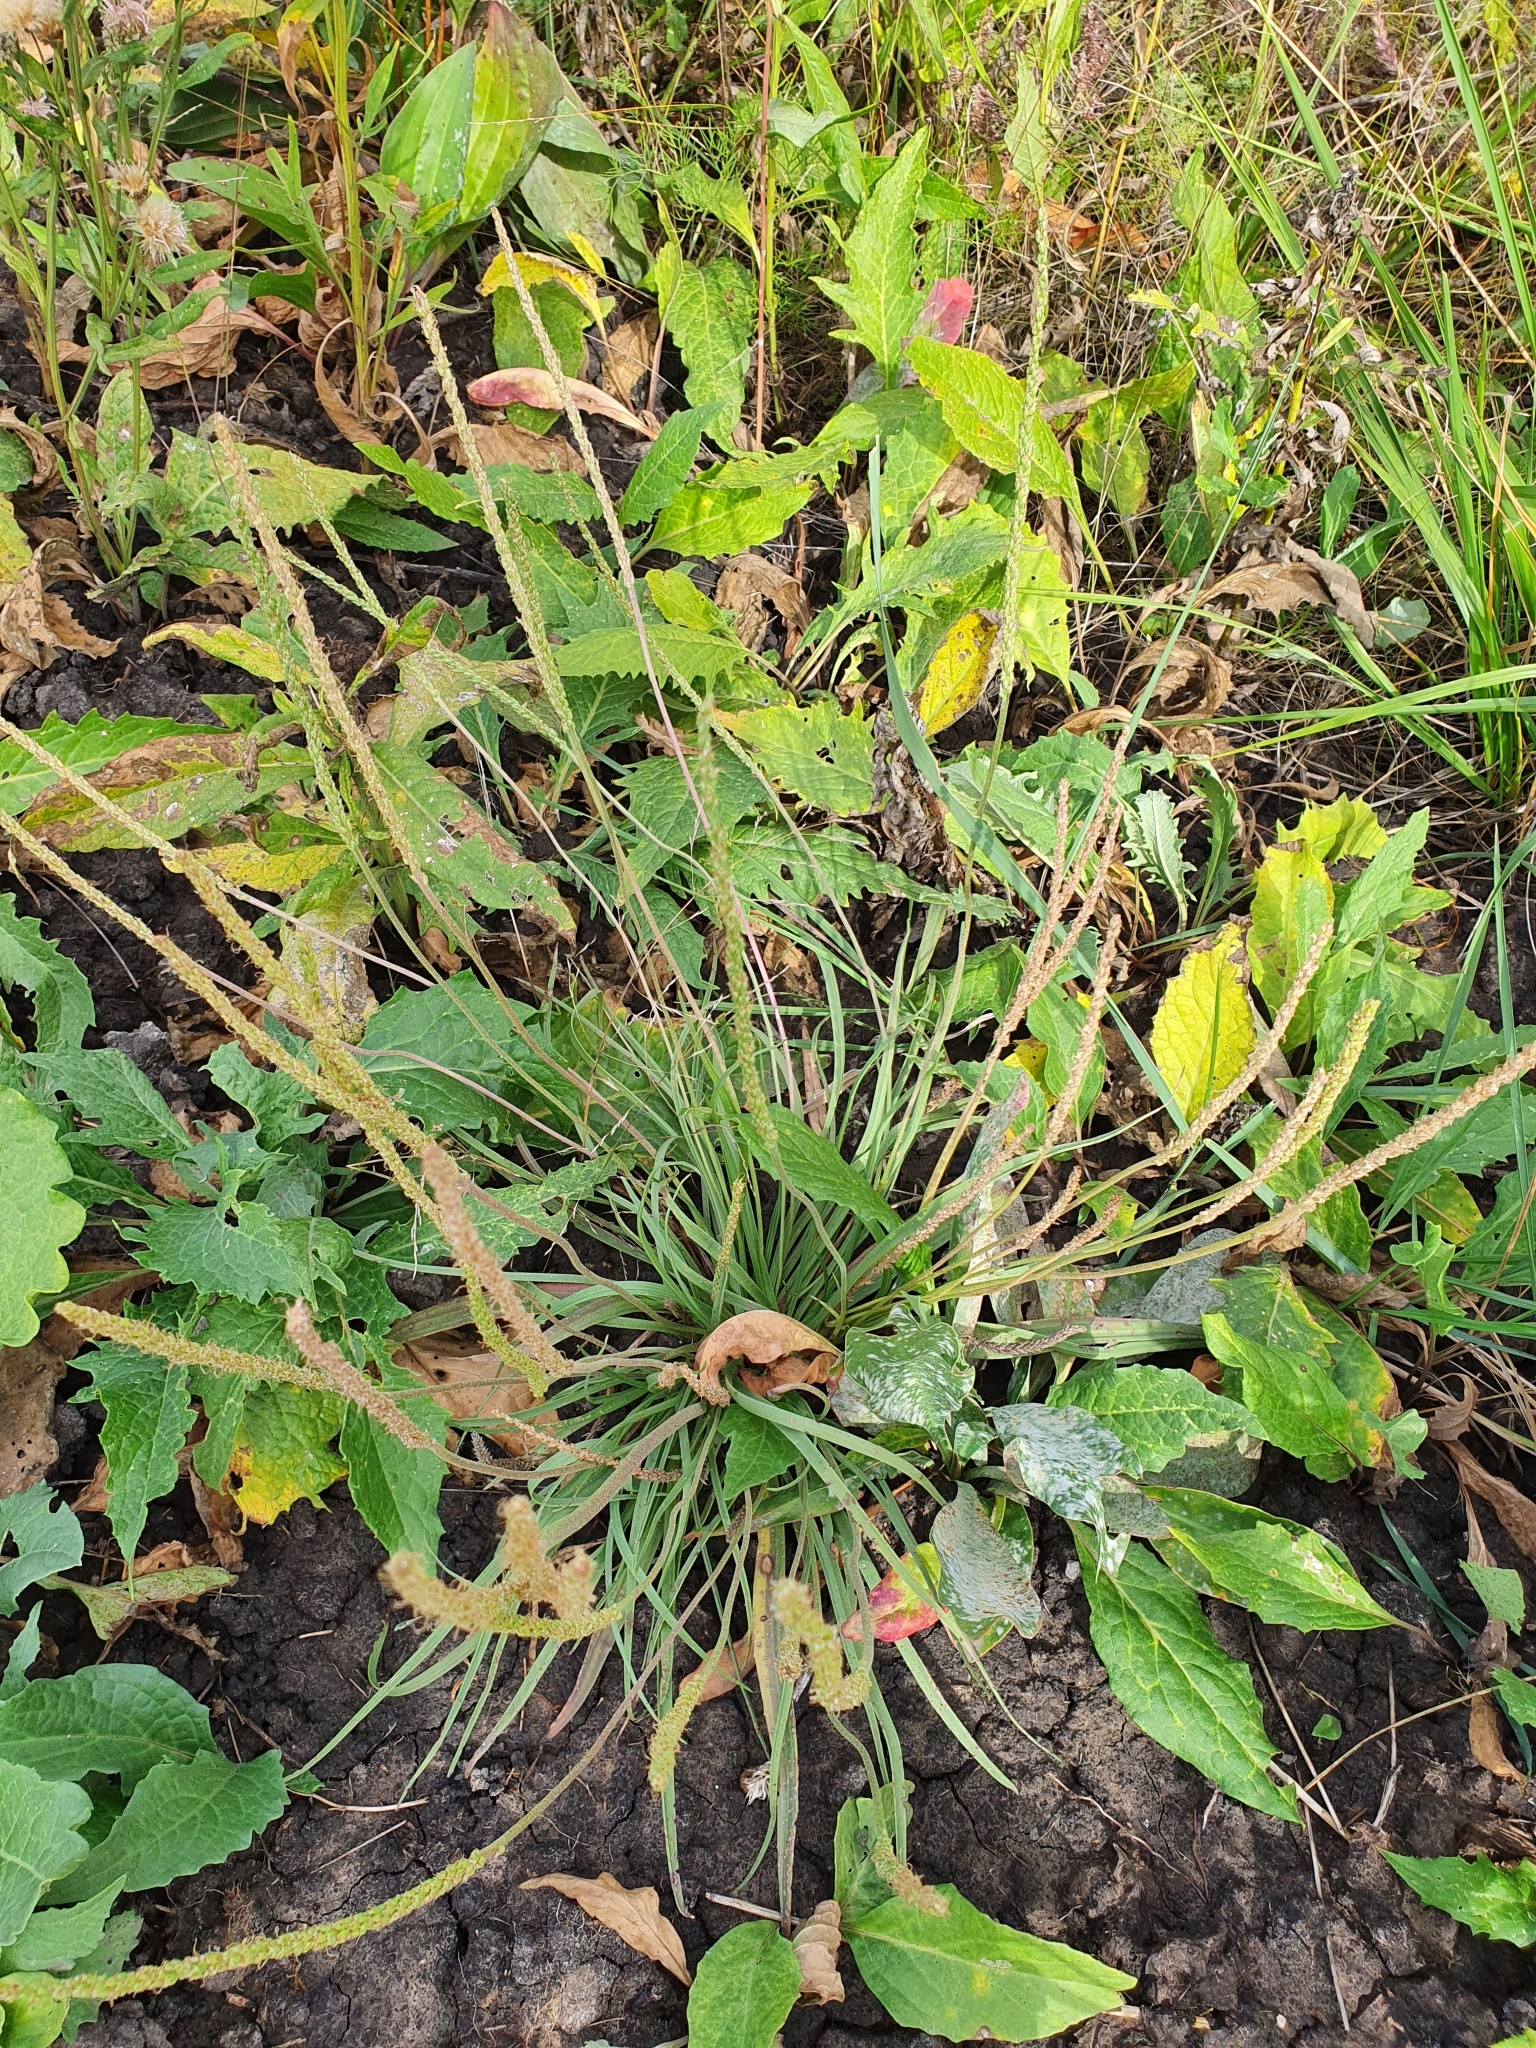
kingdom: Plantae
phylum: Tracheophyta
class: Magnoliopsida
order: Lamiales
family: Plantaginaceae
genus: Plantago
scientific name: Plantago salsa
